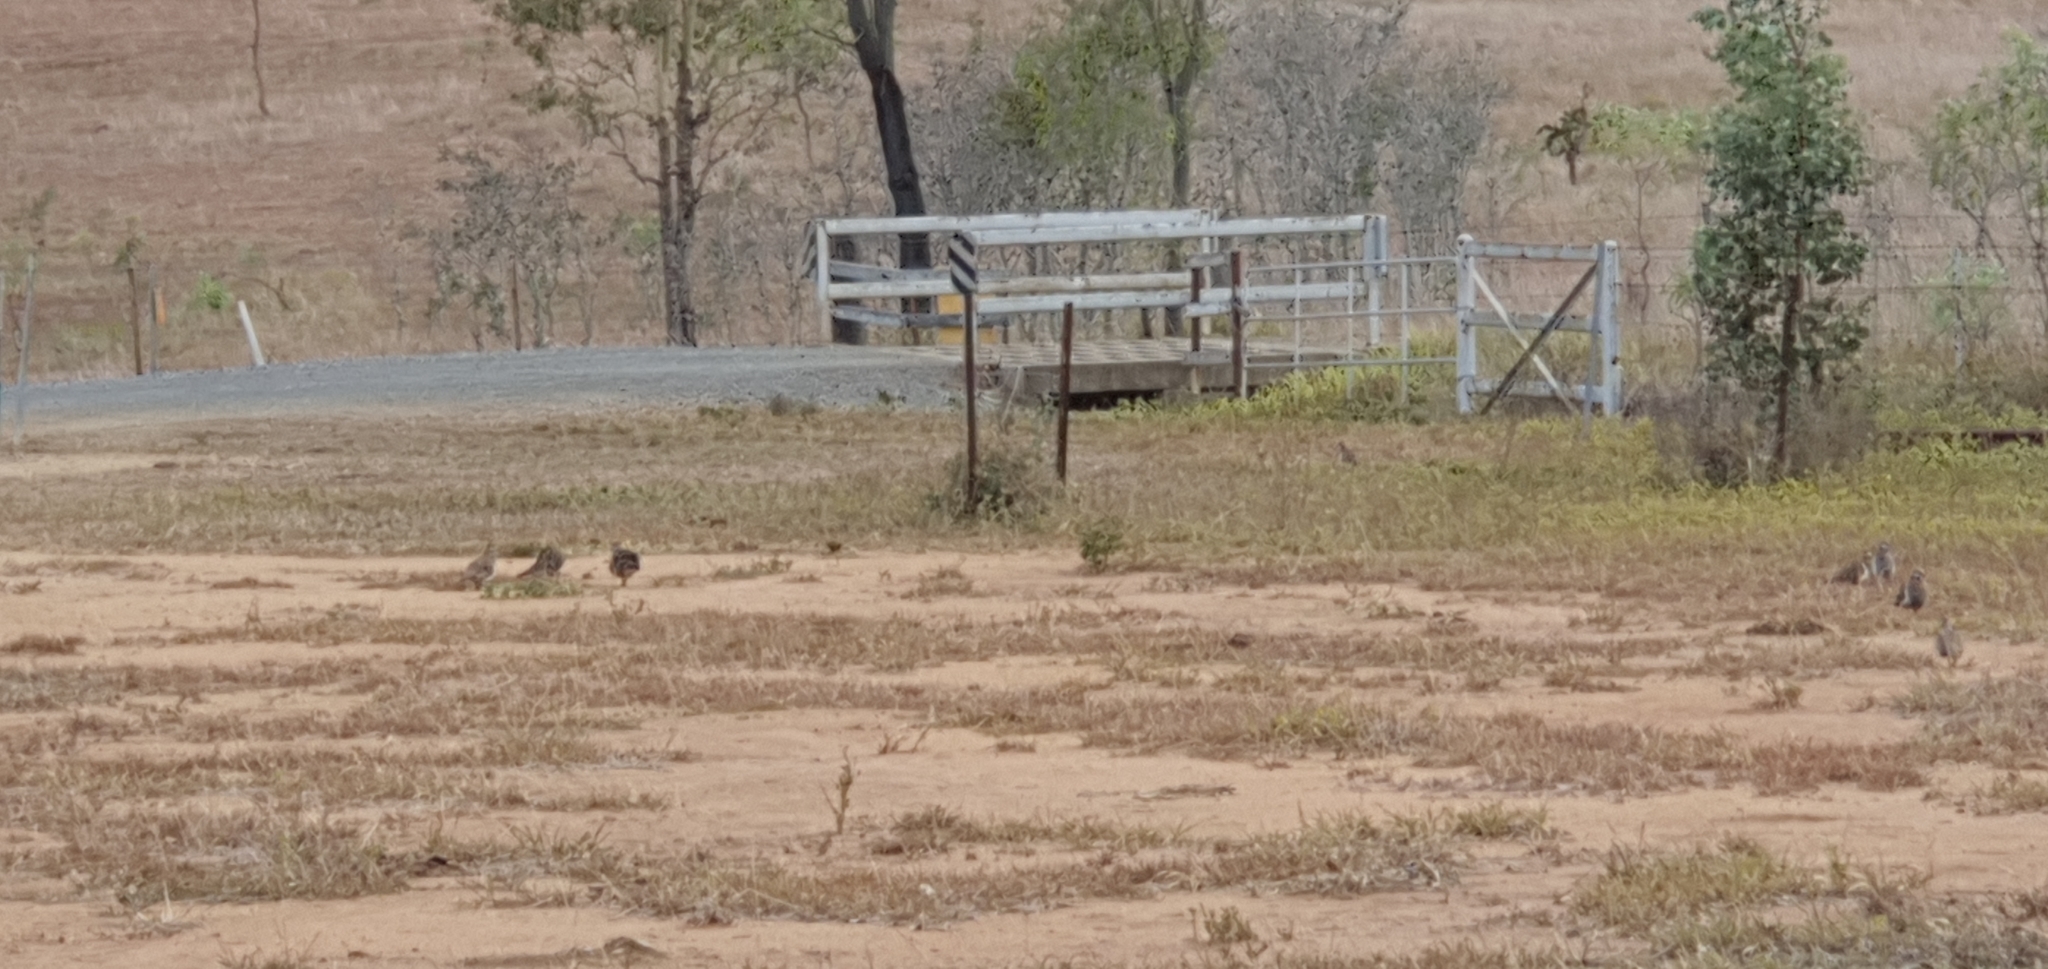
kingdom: Animalia
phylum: Chordata
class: Aves
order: Columbiformes
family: Columbidae
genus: Geophaps
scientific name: Geophaps scripta
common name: Squatter pigeon
